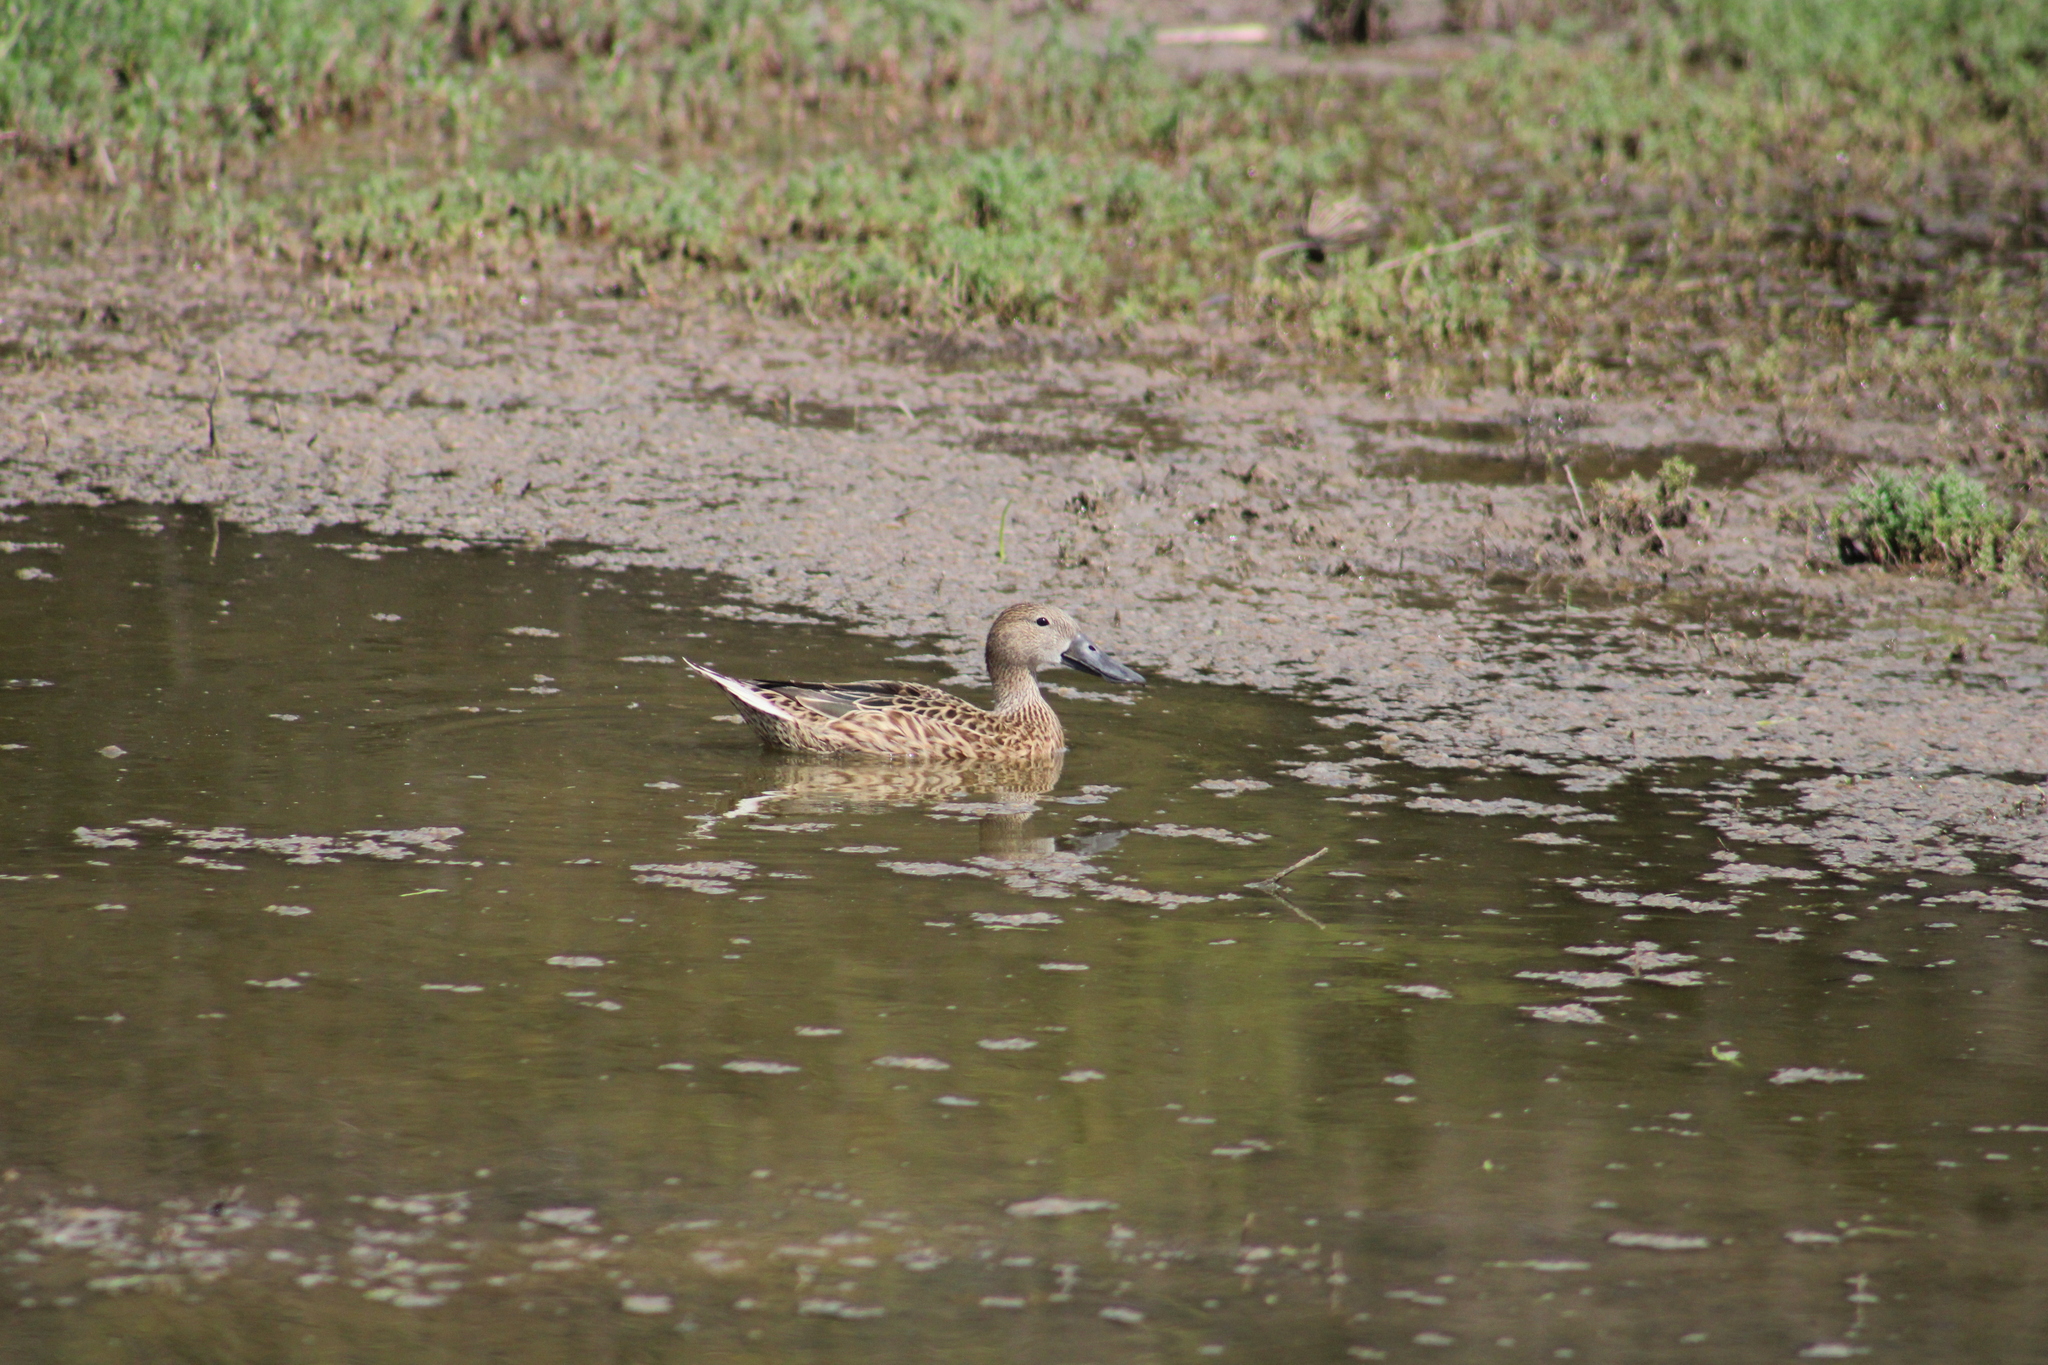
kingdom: Animalia
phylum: Chordata
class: Aves
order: Anseriformes
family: Anatidae
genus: Spatula
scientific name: Spatula platalea
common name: Red shoveler
